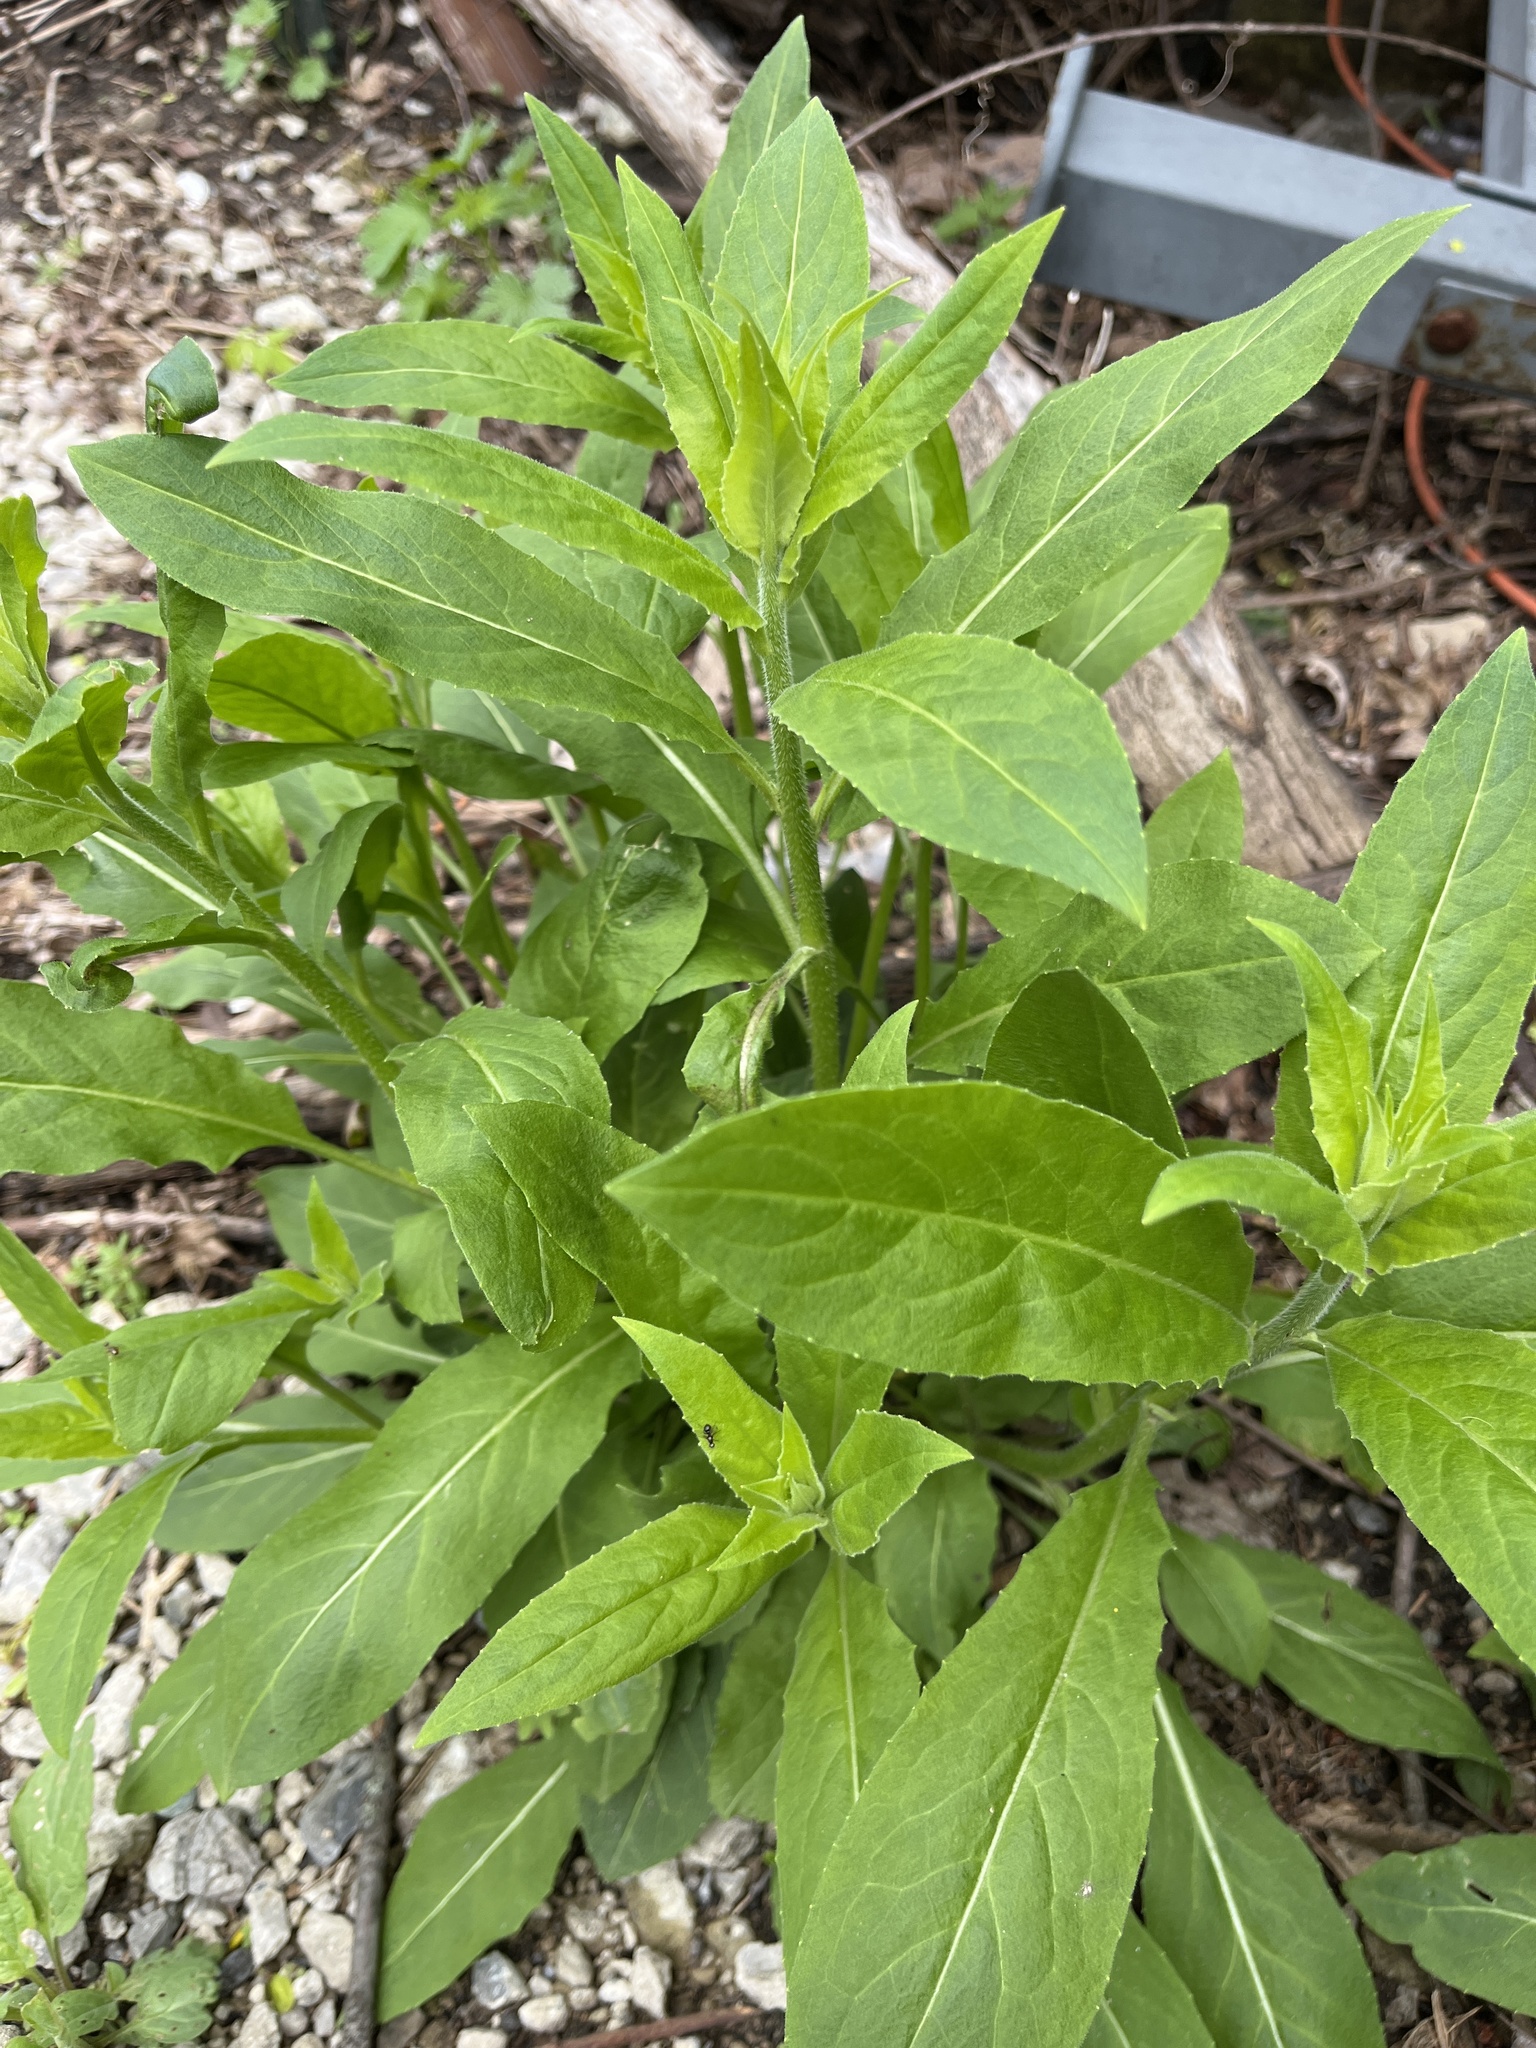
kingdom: Plantae
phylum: Tracheophyta
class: Magnoliopsida
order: Brassicales
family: Brassicaceae
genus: Hesperis
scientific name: Hesperis matronalis
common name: Dame's-violet
